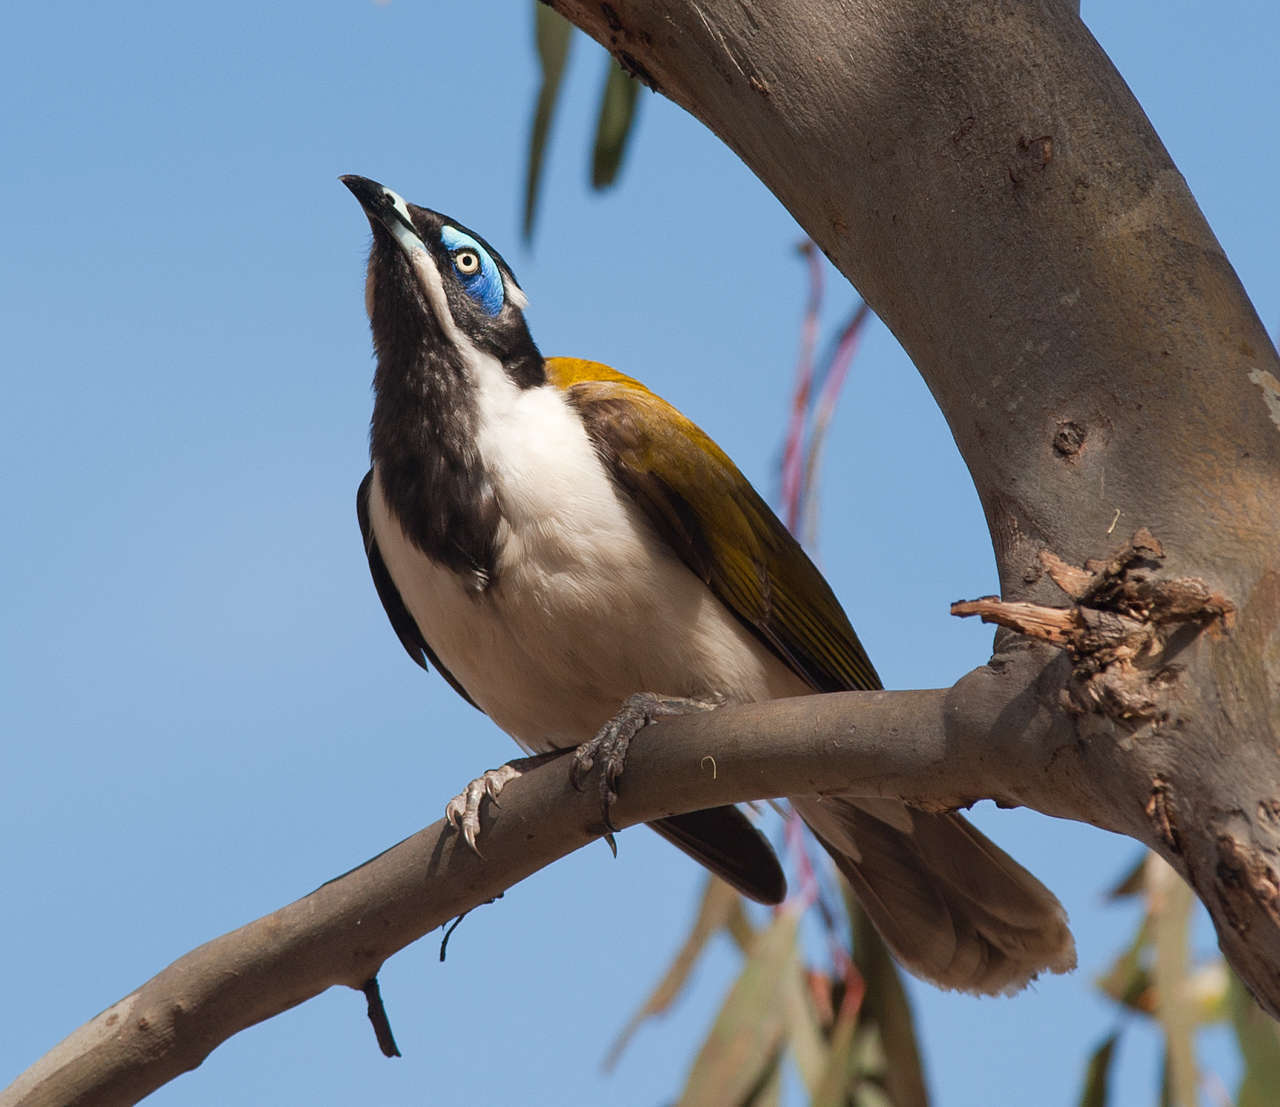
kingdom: Animalia
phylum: Chordata
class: Aves
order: Passeriformes
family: Meliphagidae
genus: Entomyzon
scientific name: Entomyzon cyanotis
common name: Blue-faced honeyeater
